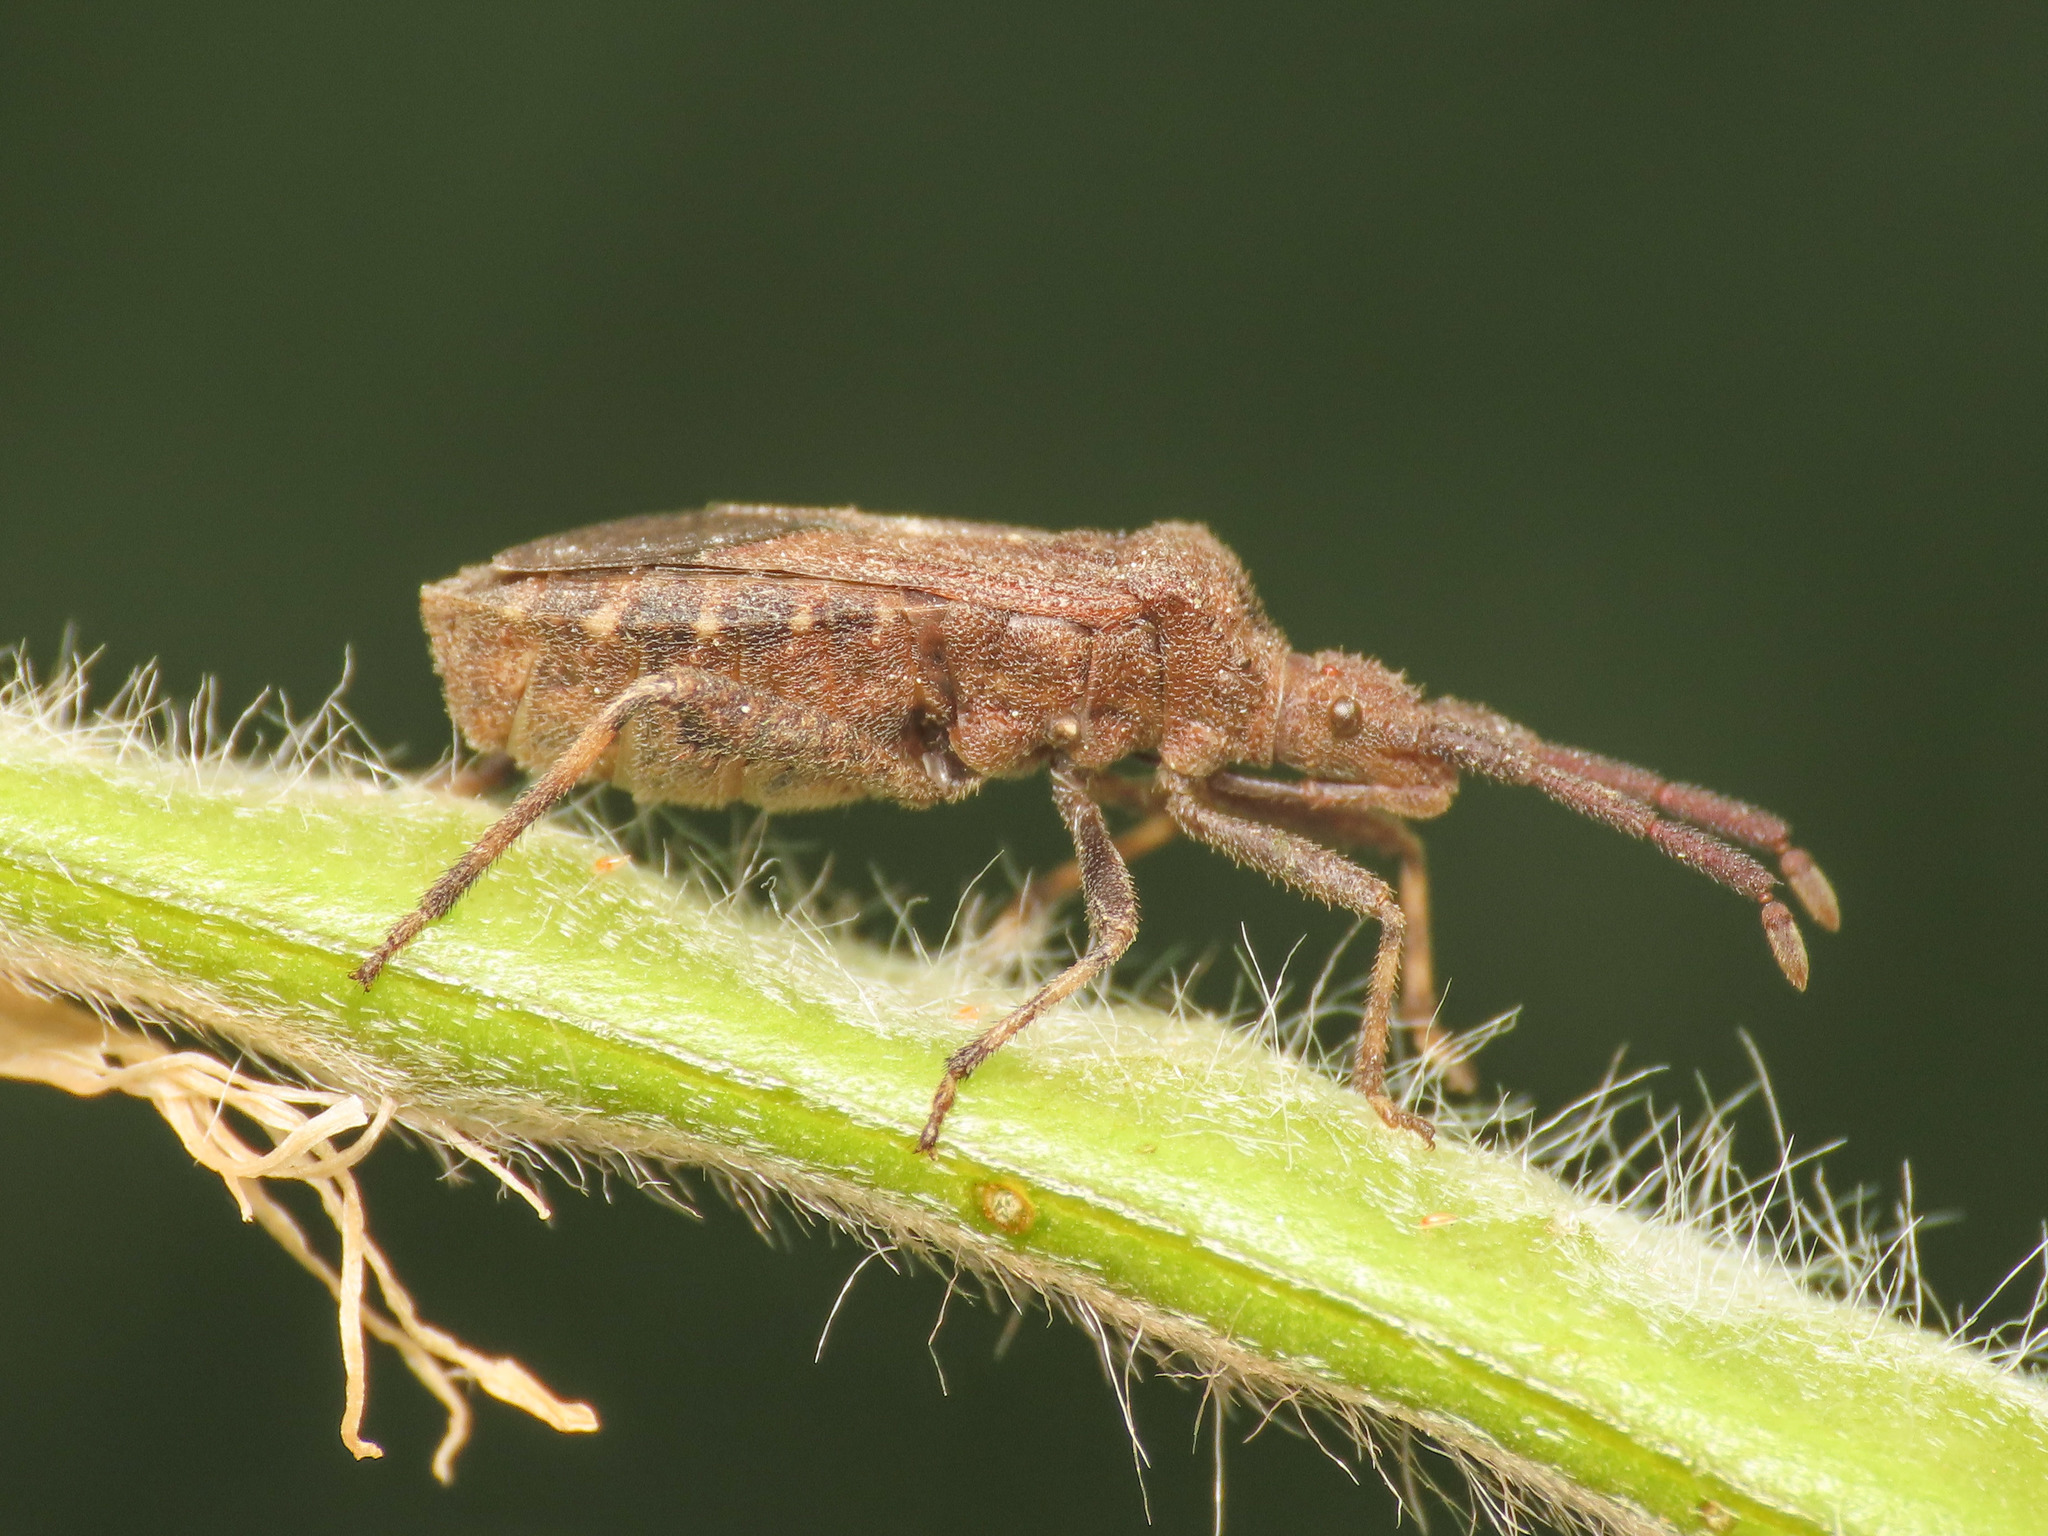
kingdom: Animalia
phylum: Arthropoda
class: Insecta
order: Hemiptera
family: Coreidae
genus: Bothrostethus
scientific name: Bothrostethus annulipes
